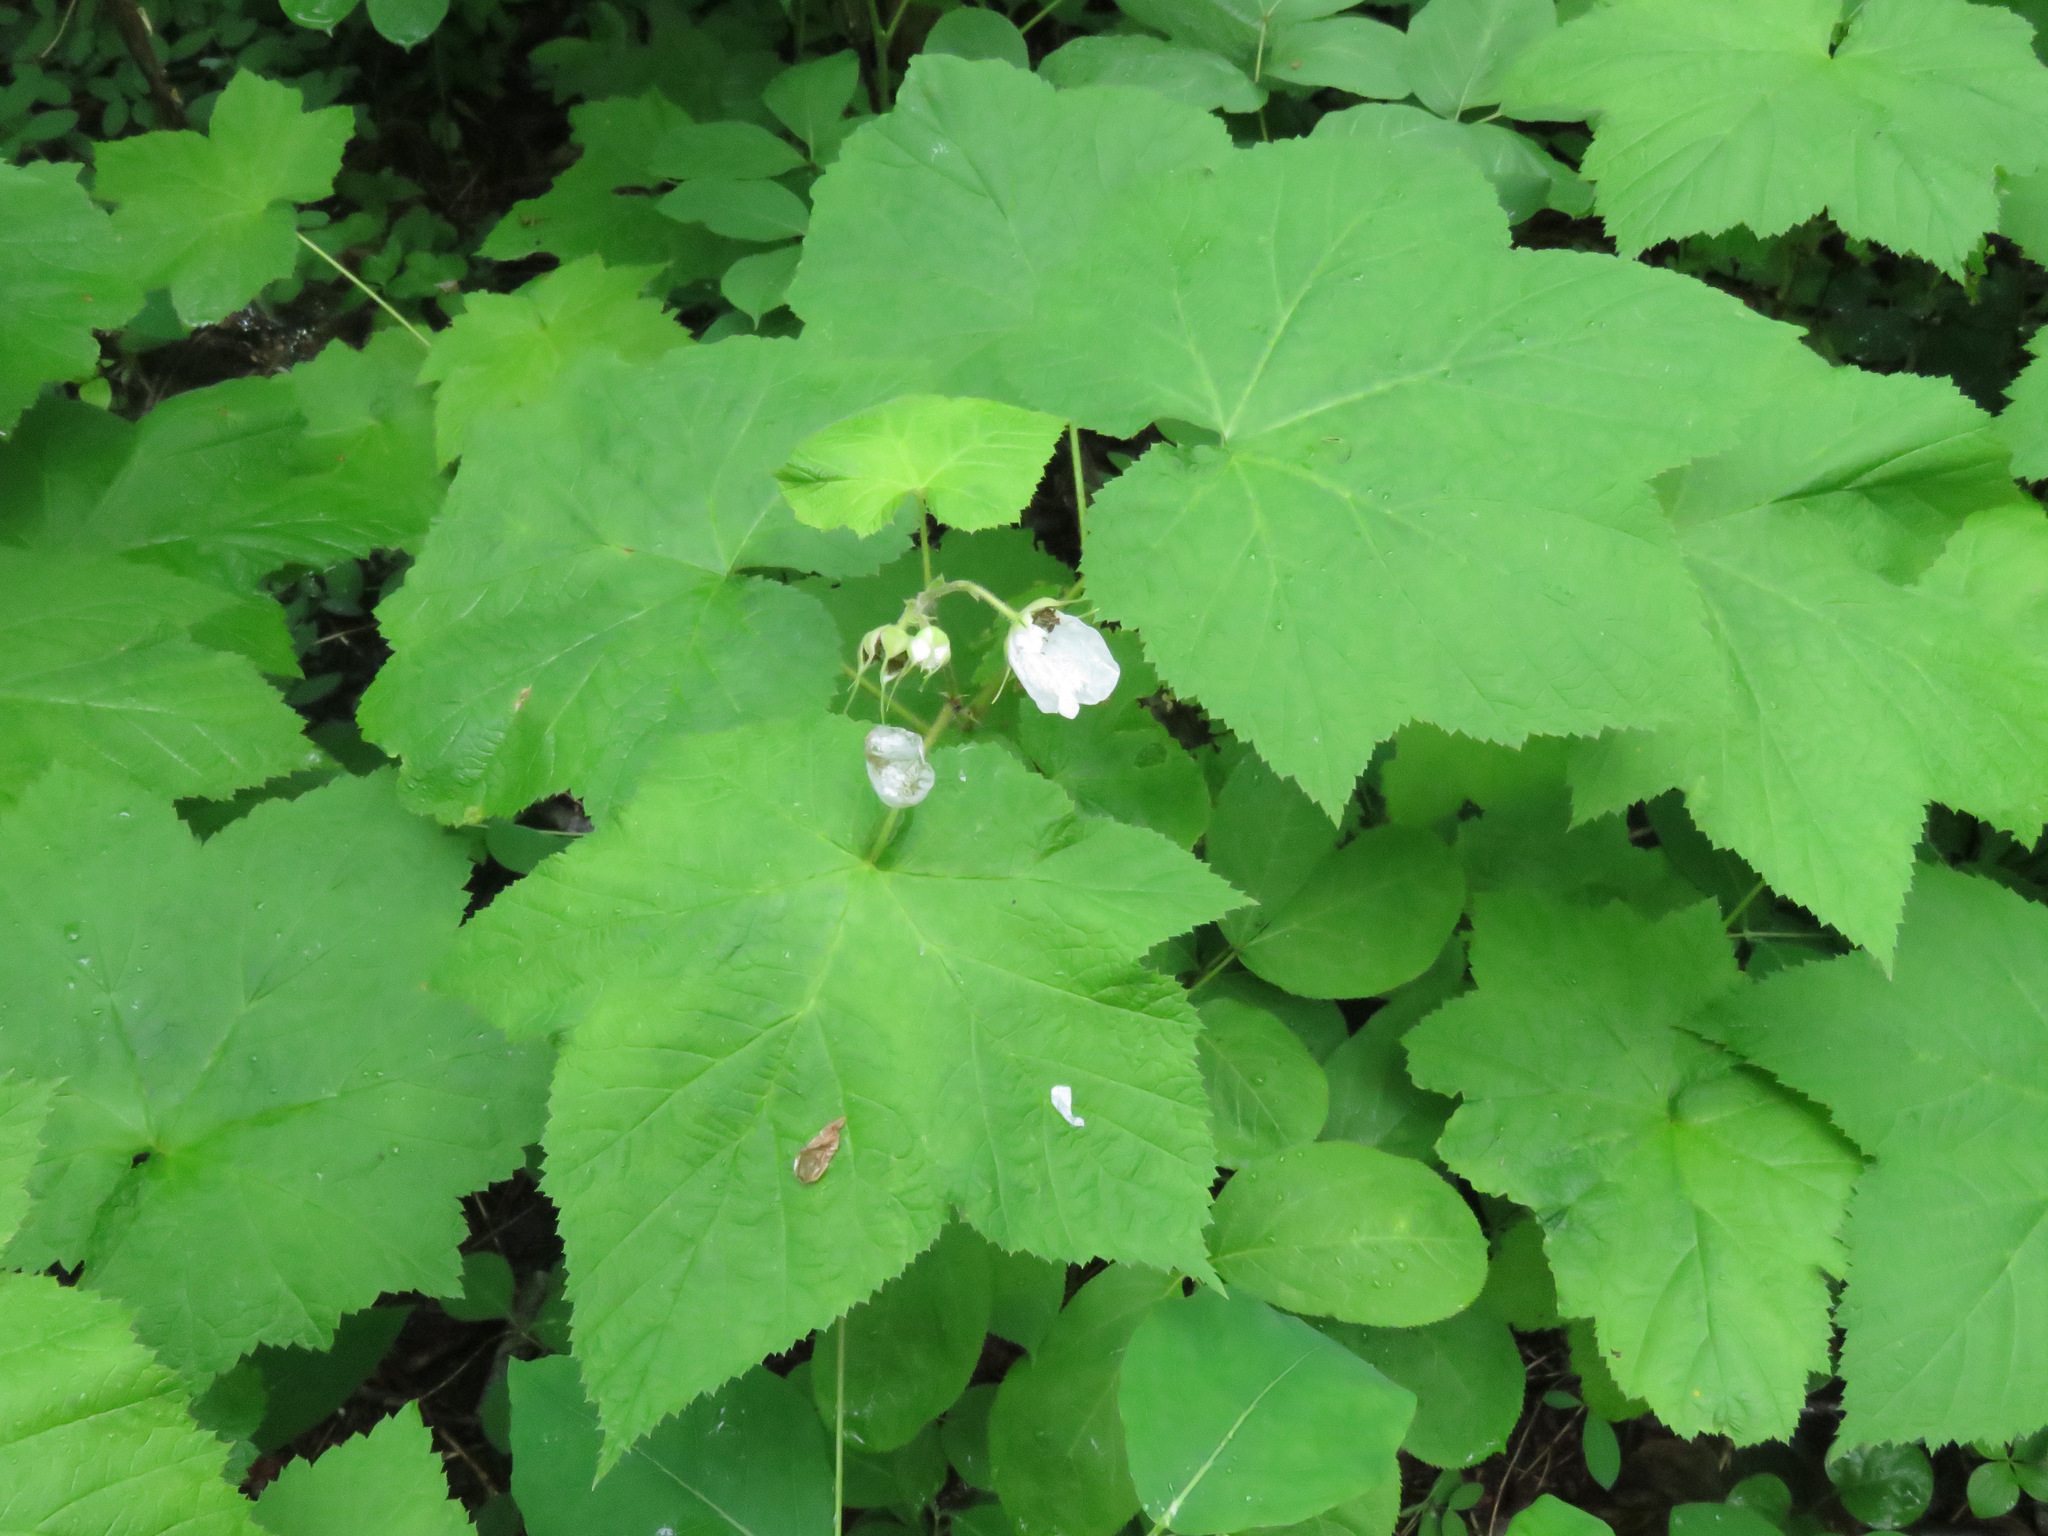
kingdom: Plantae
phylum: Tracheophyta
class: Magnoliopsida
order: Rosales
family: Rosaceae
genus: Rubus
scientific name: Rubus parviflorus
